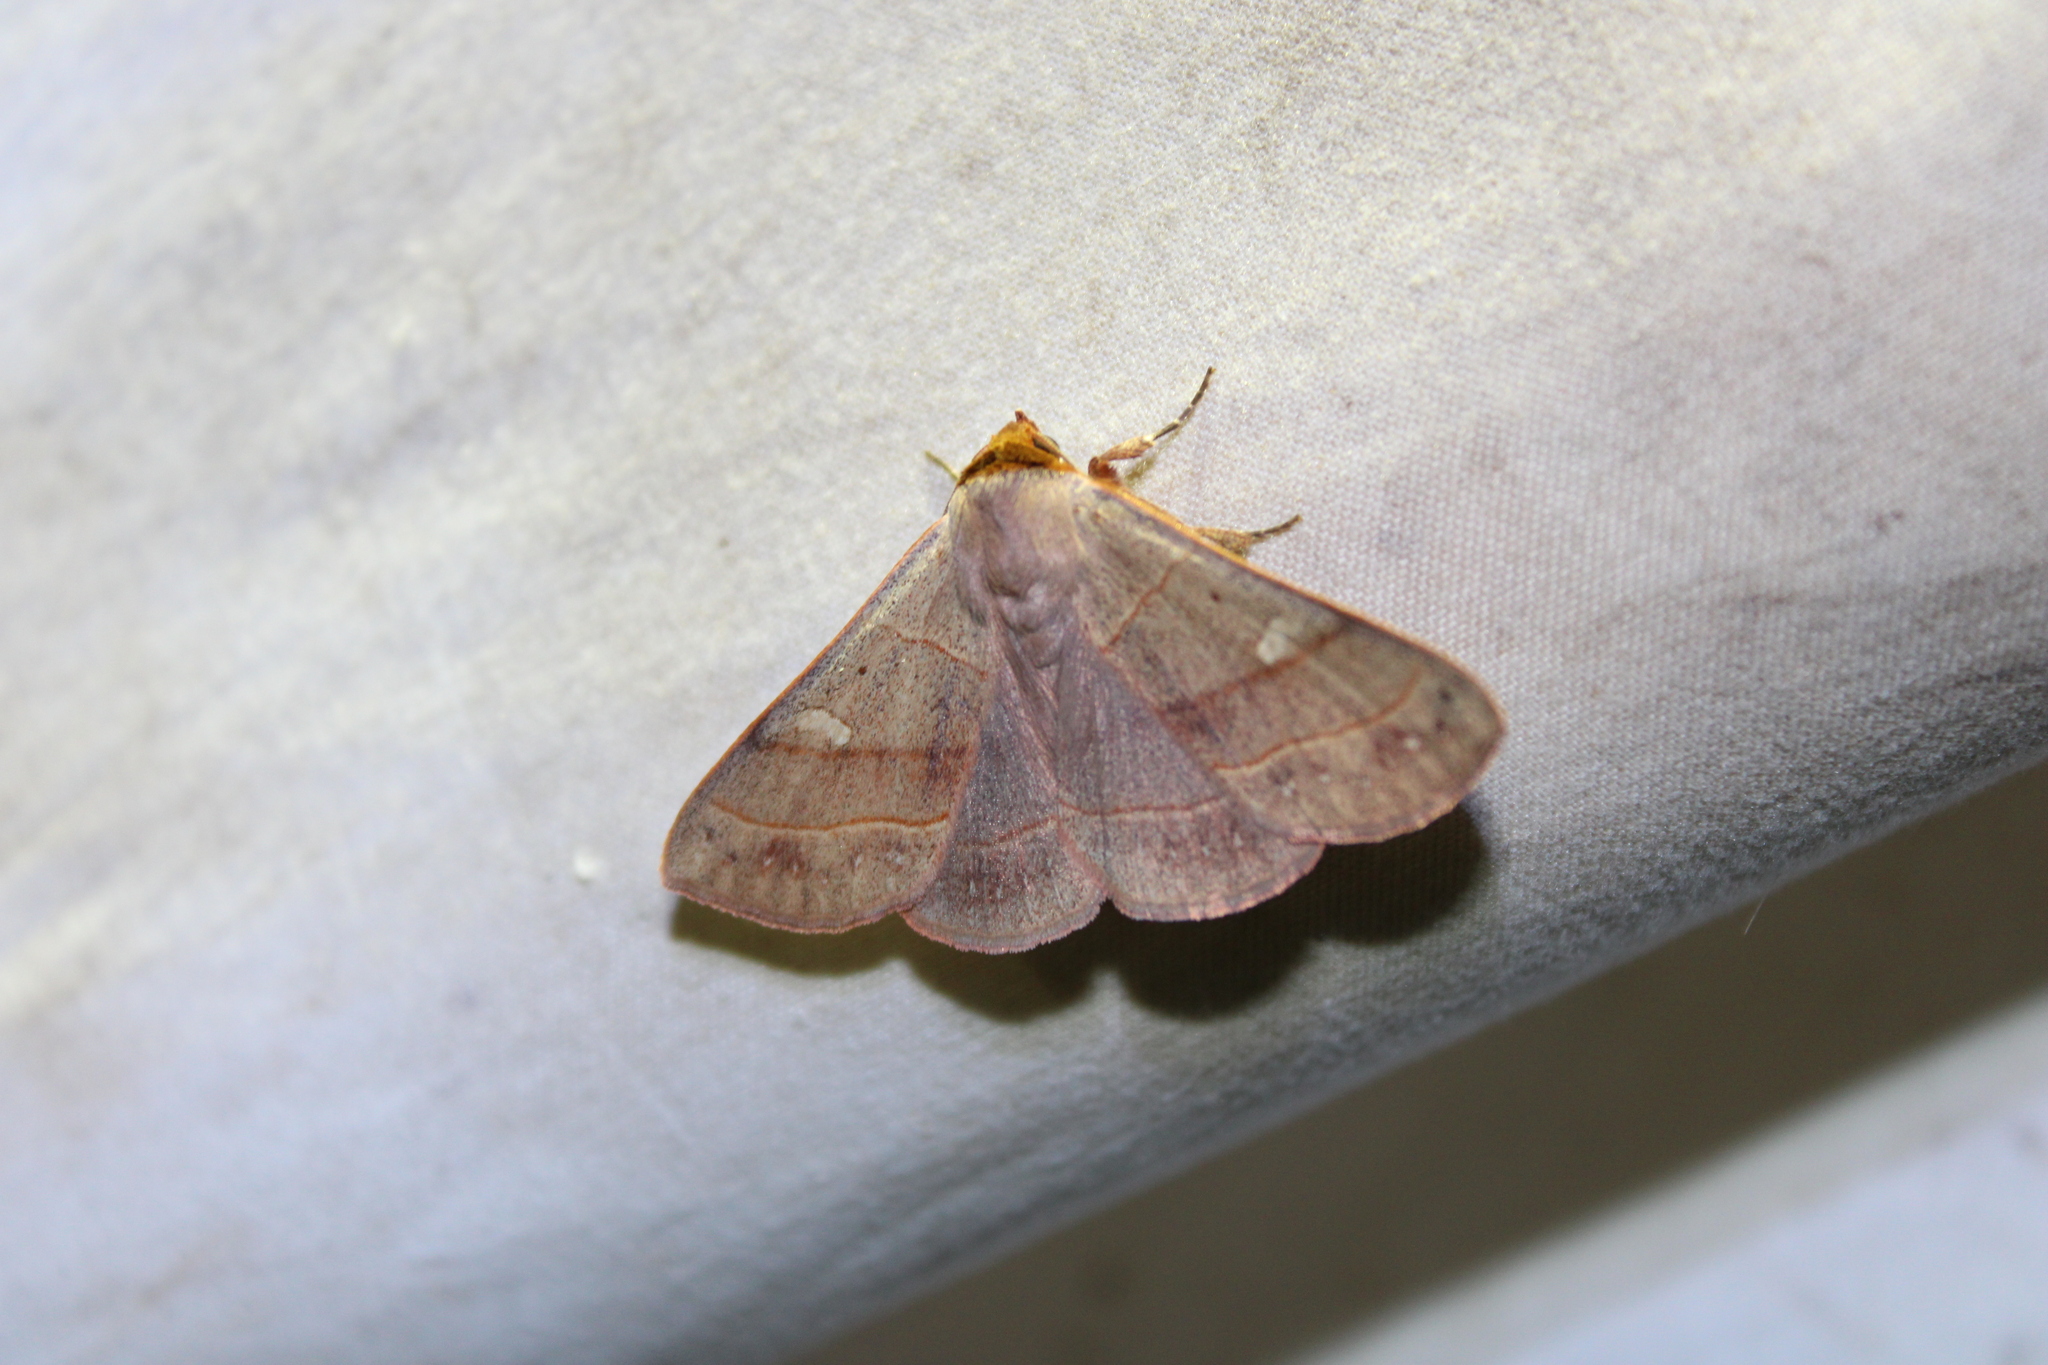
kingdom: Animalia
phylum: Arthropoda
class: Insecta
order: Lepidoptera
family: Erebidae
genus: Panopoda
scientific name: Panopoda rufimargo
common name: Red-lined panopoda moth
